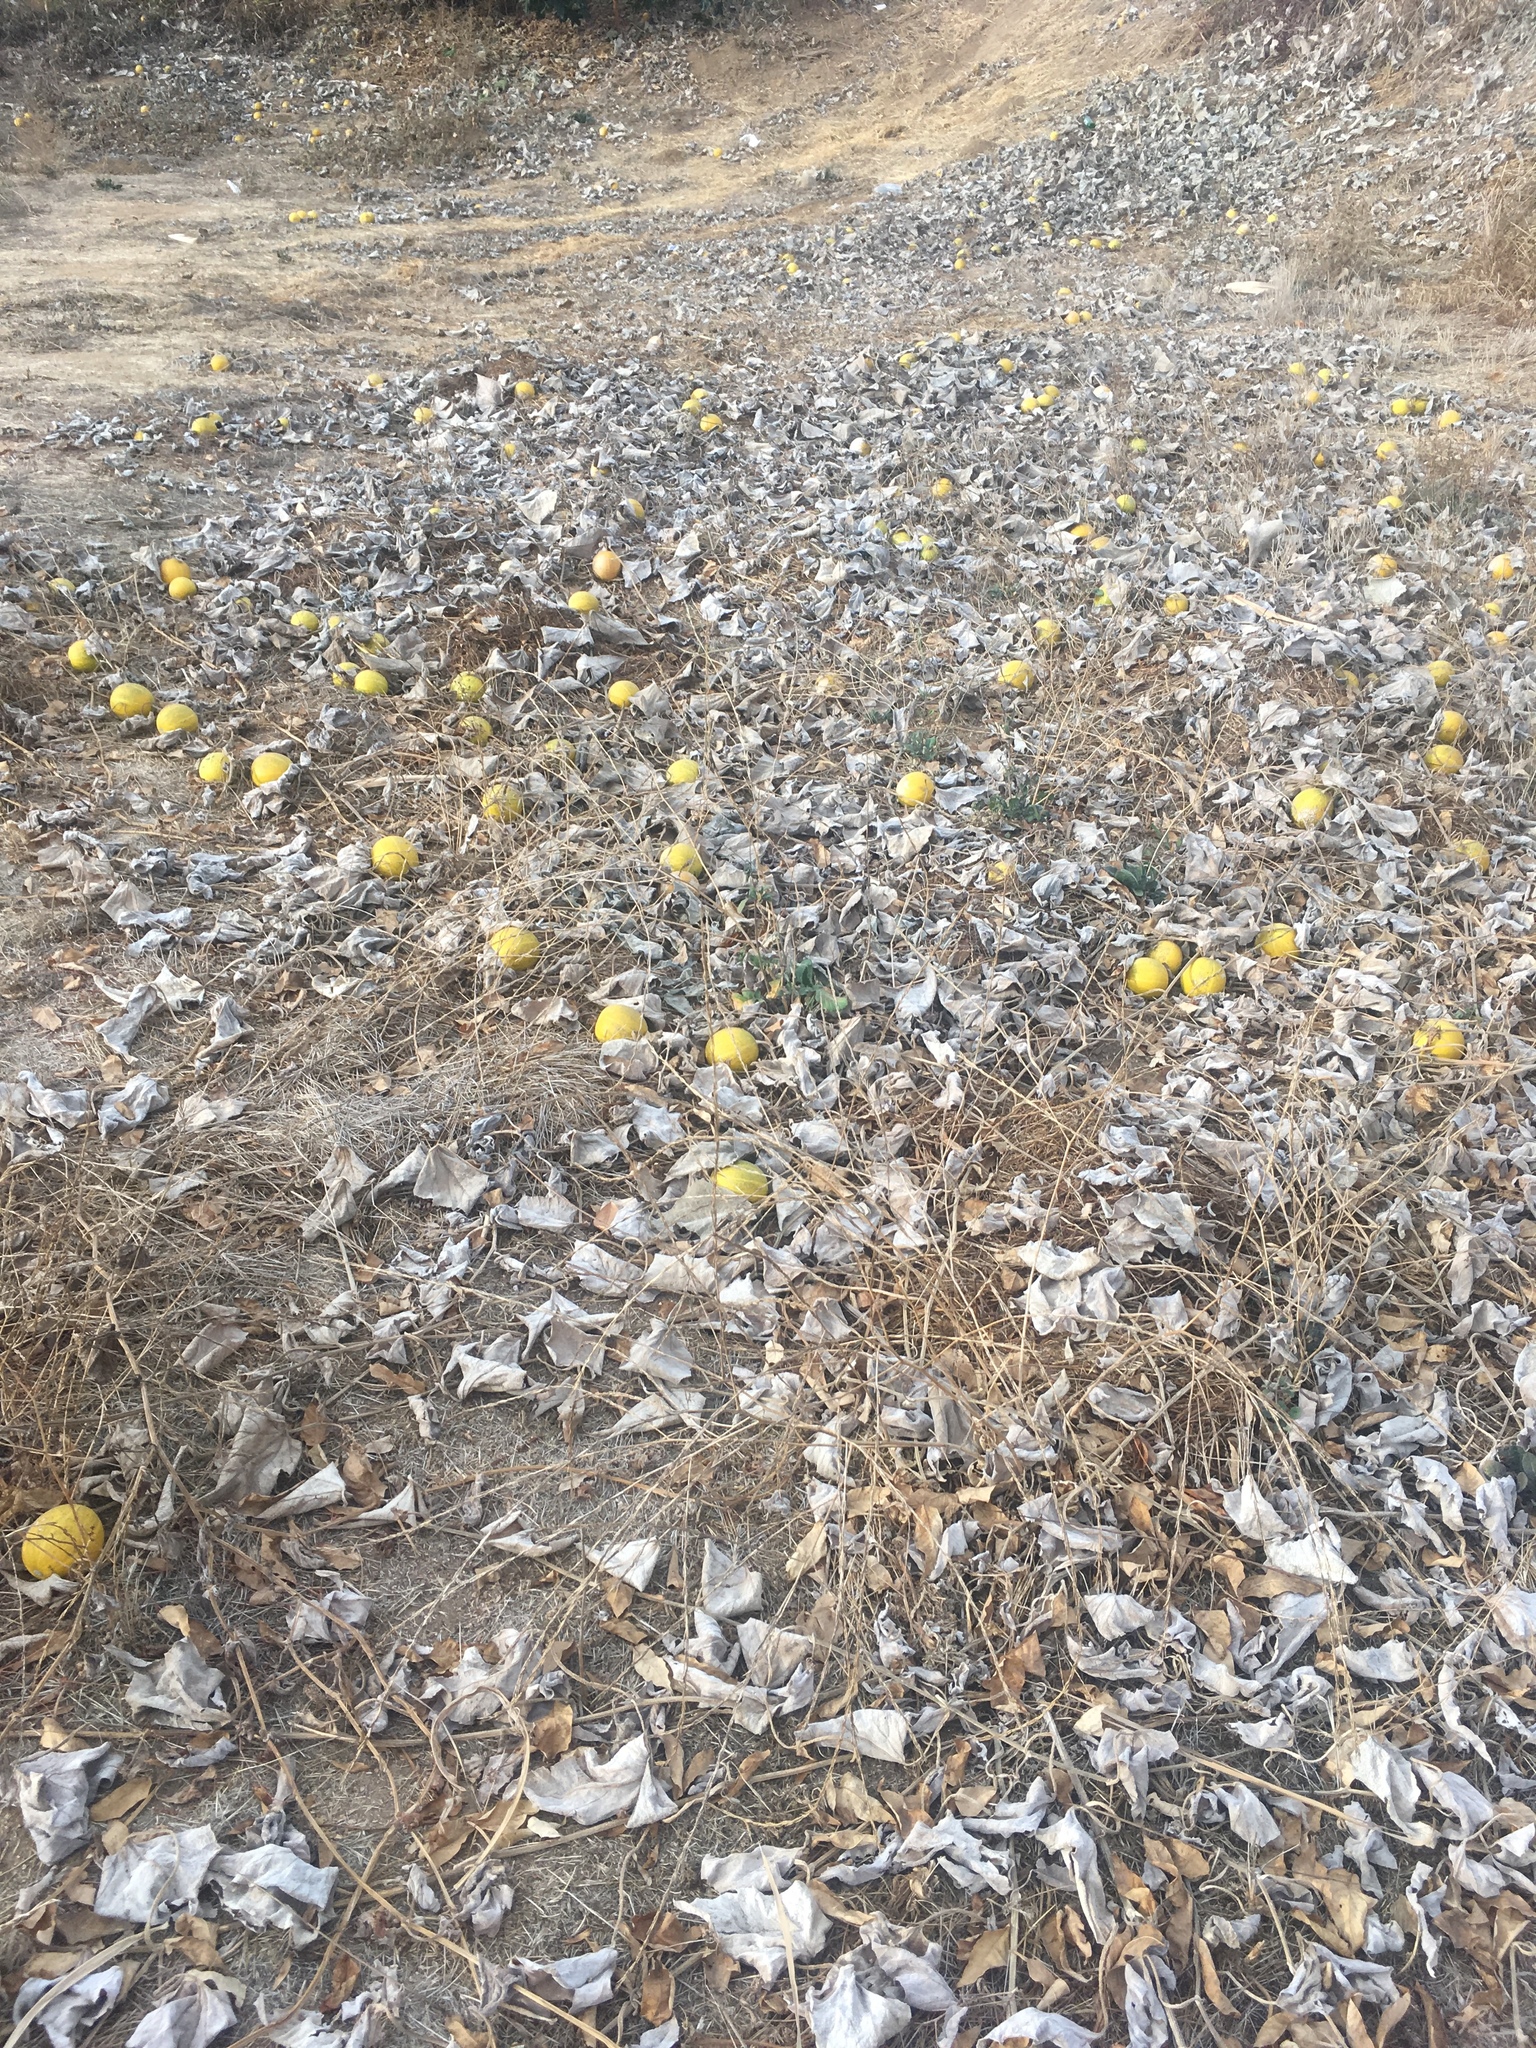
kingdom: Plantae
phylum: Tracheophyta
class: Magnoliopsida
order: Cucurbitales
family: Cucurbitaceae
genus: Cucurbita
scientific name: Cucurbita foetidissima
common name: Buffalo gourd
